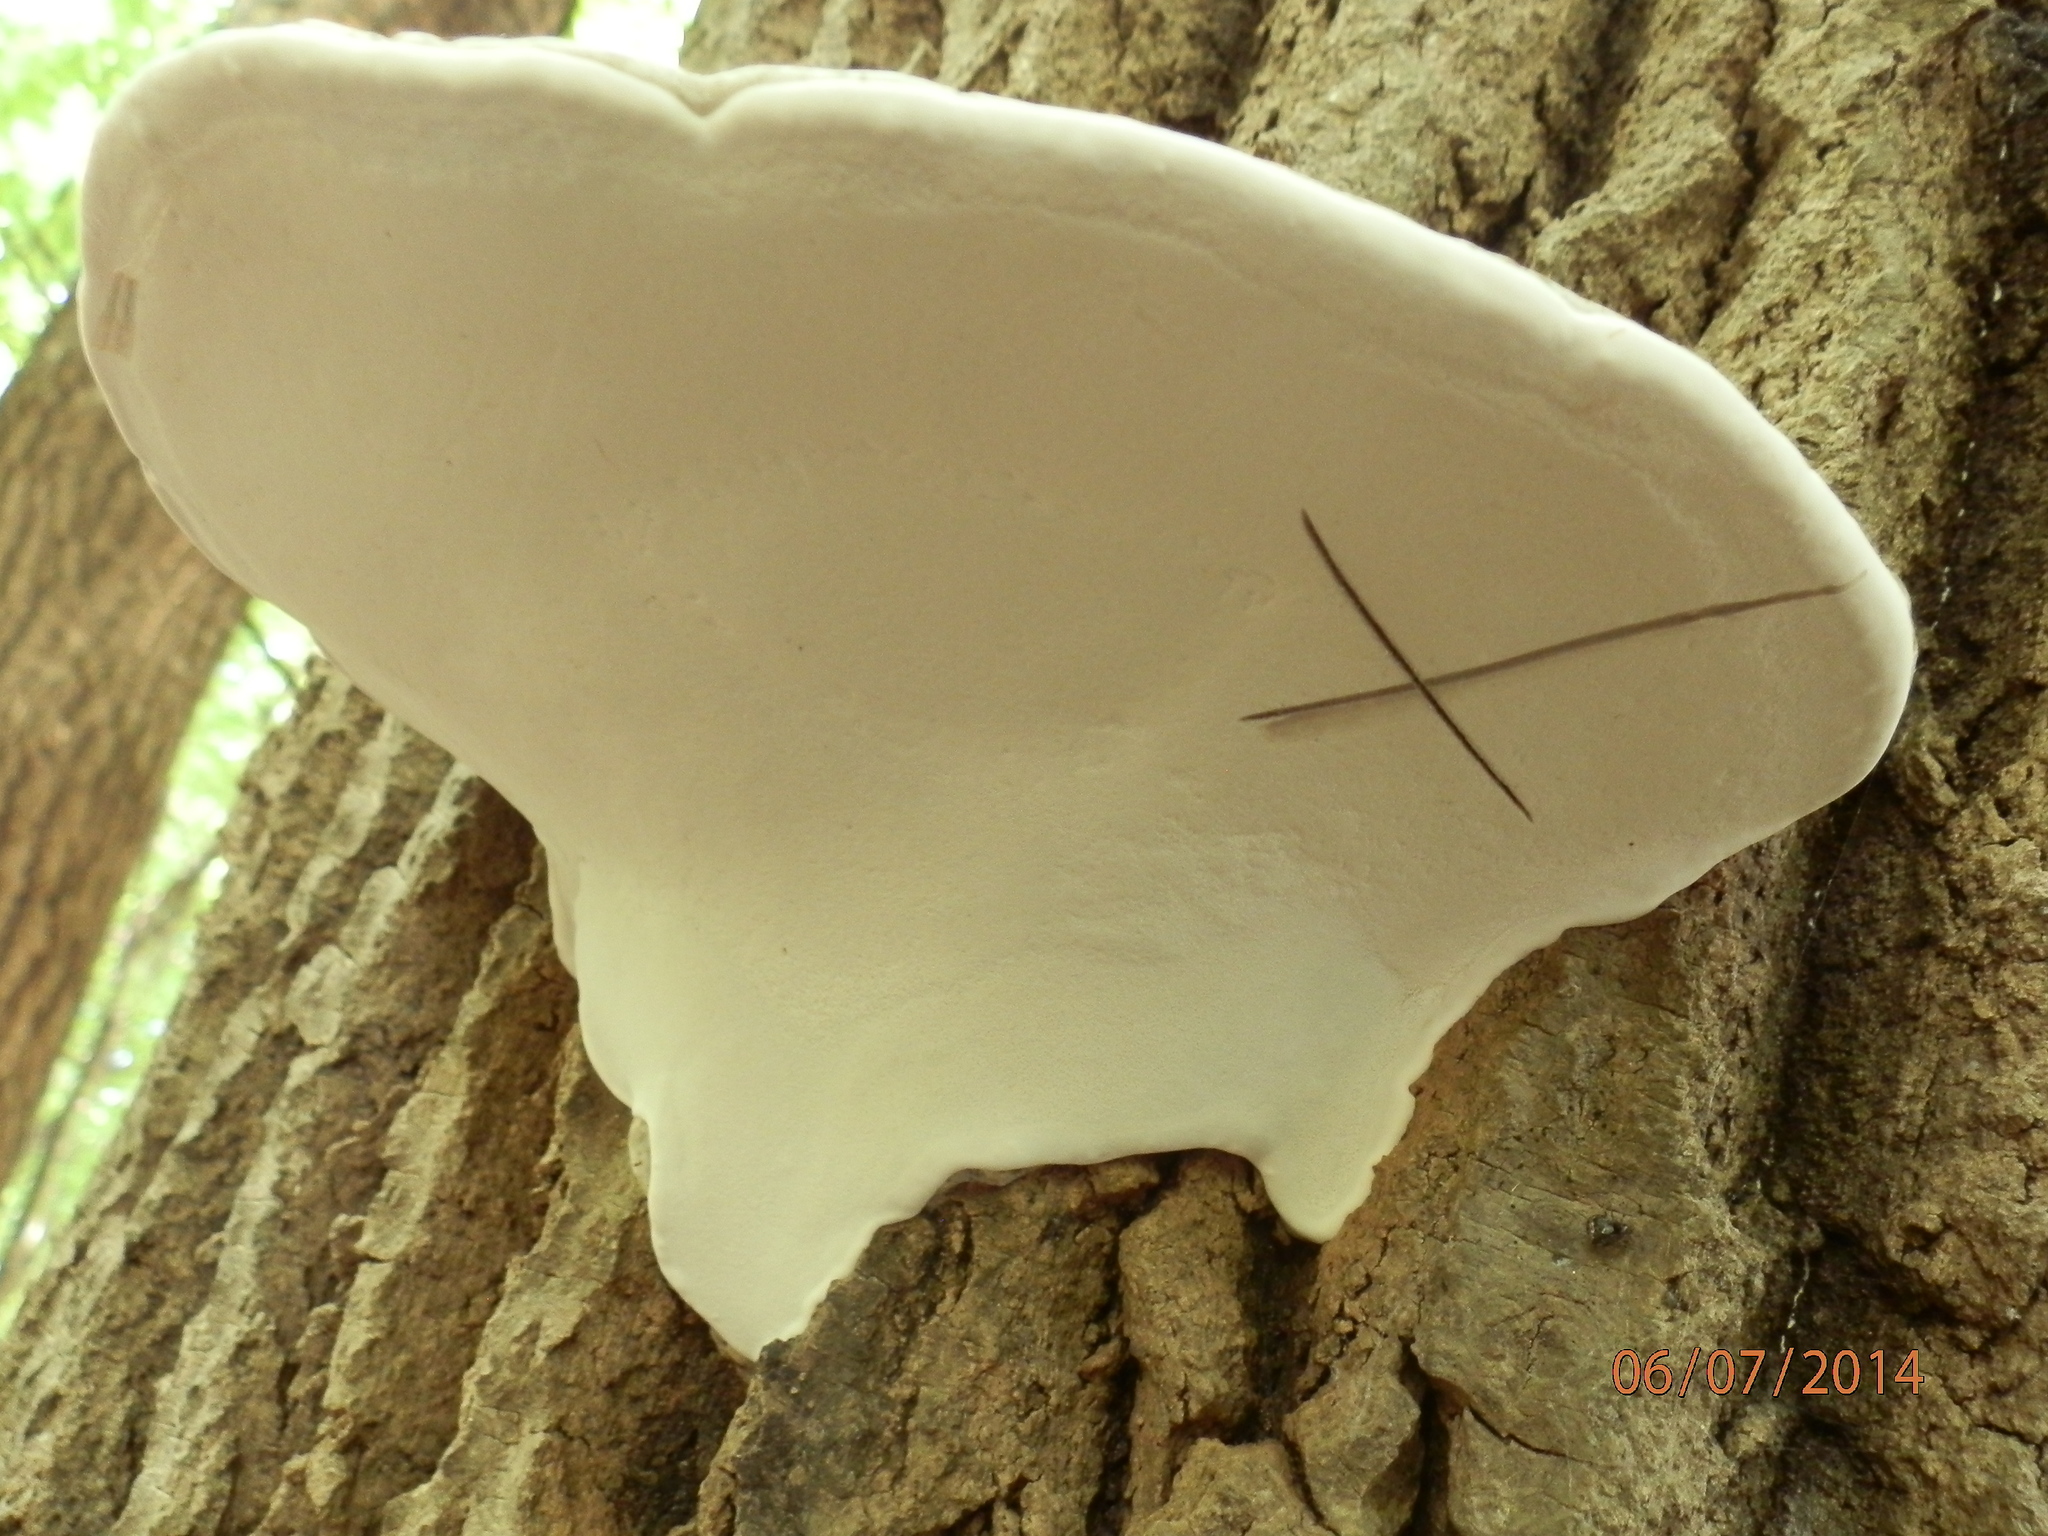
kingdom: Fungi
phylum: Basidiomycota
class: Agaricomycetes
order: Polyporales
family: Polyporaceae
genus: Ganoderma
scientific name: Ganoderma applanatum
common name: Artist's bracket
